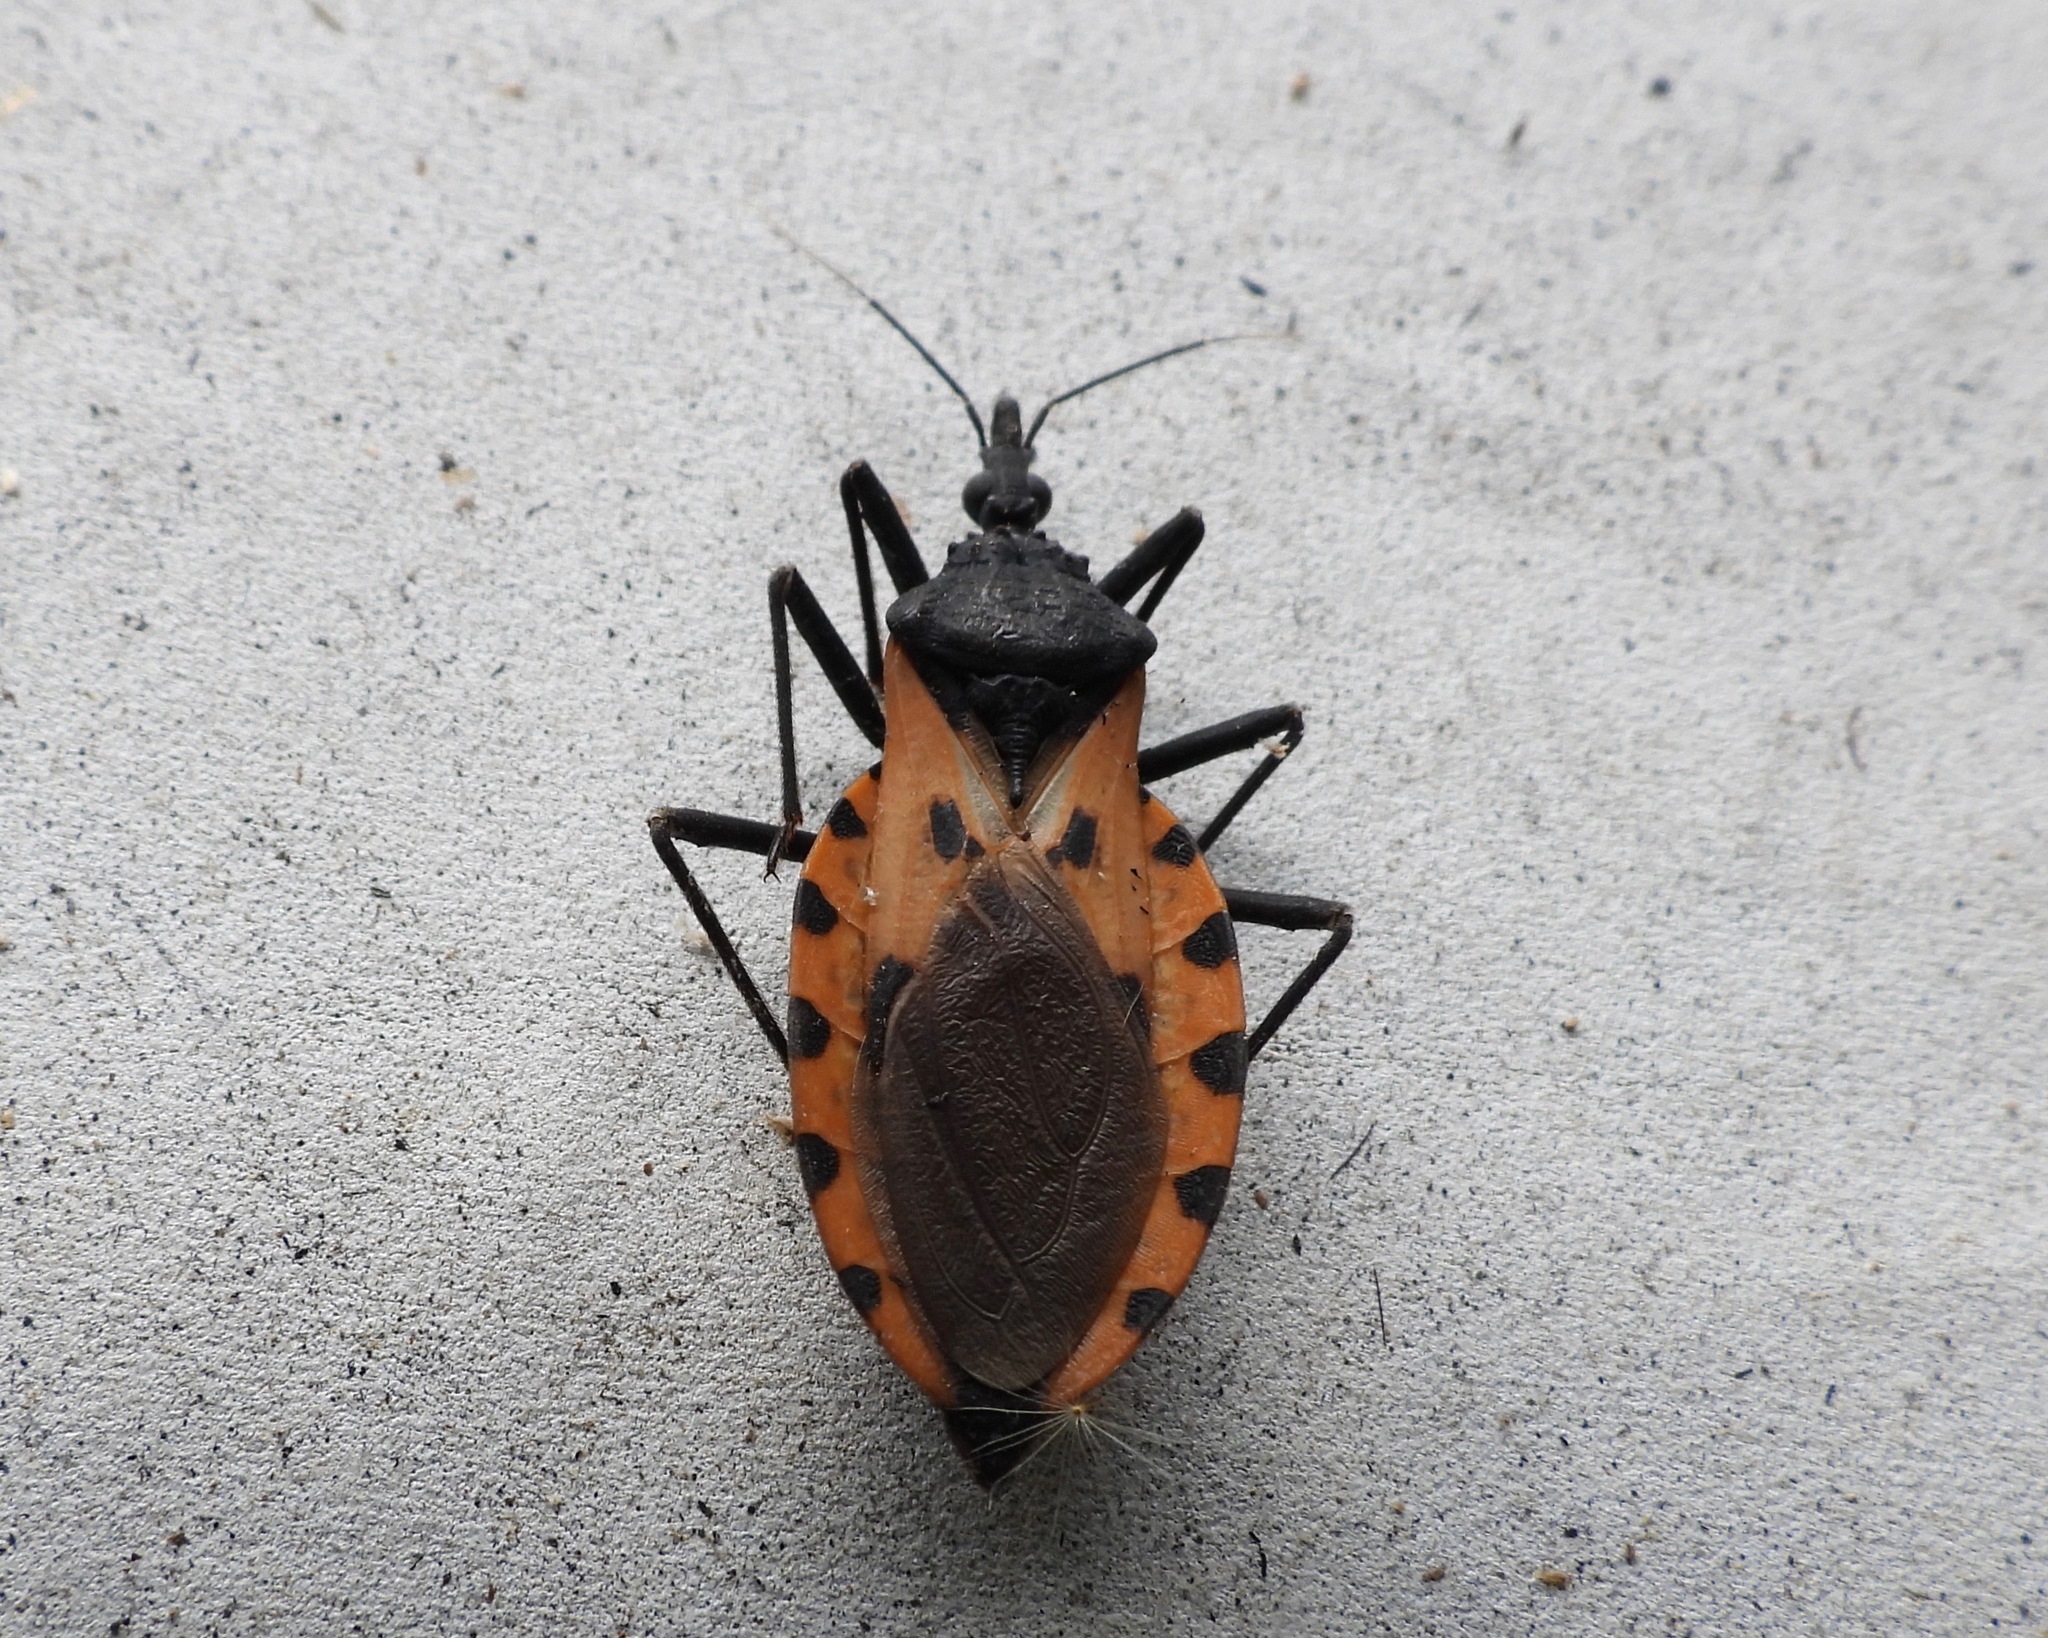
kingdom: Animalia
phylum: Arthropoda
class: Insecta
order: Hemiptera
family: Reduviidae
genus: Meccus
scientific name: Meccus dimidiatus
